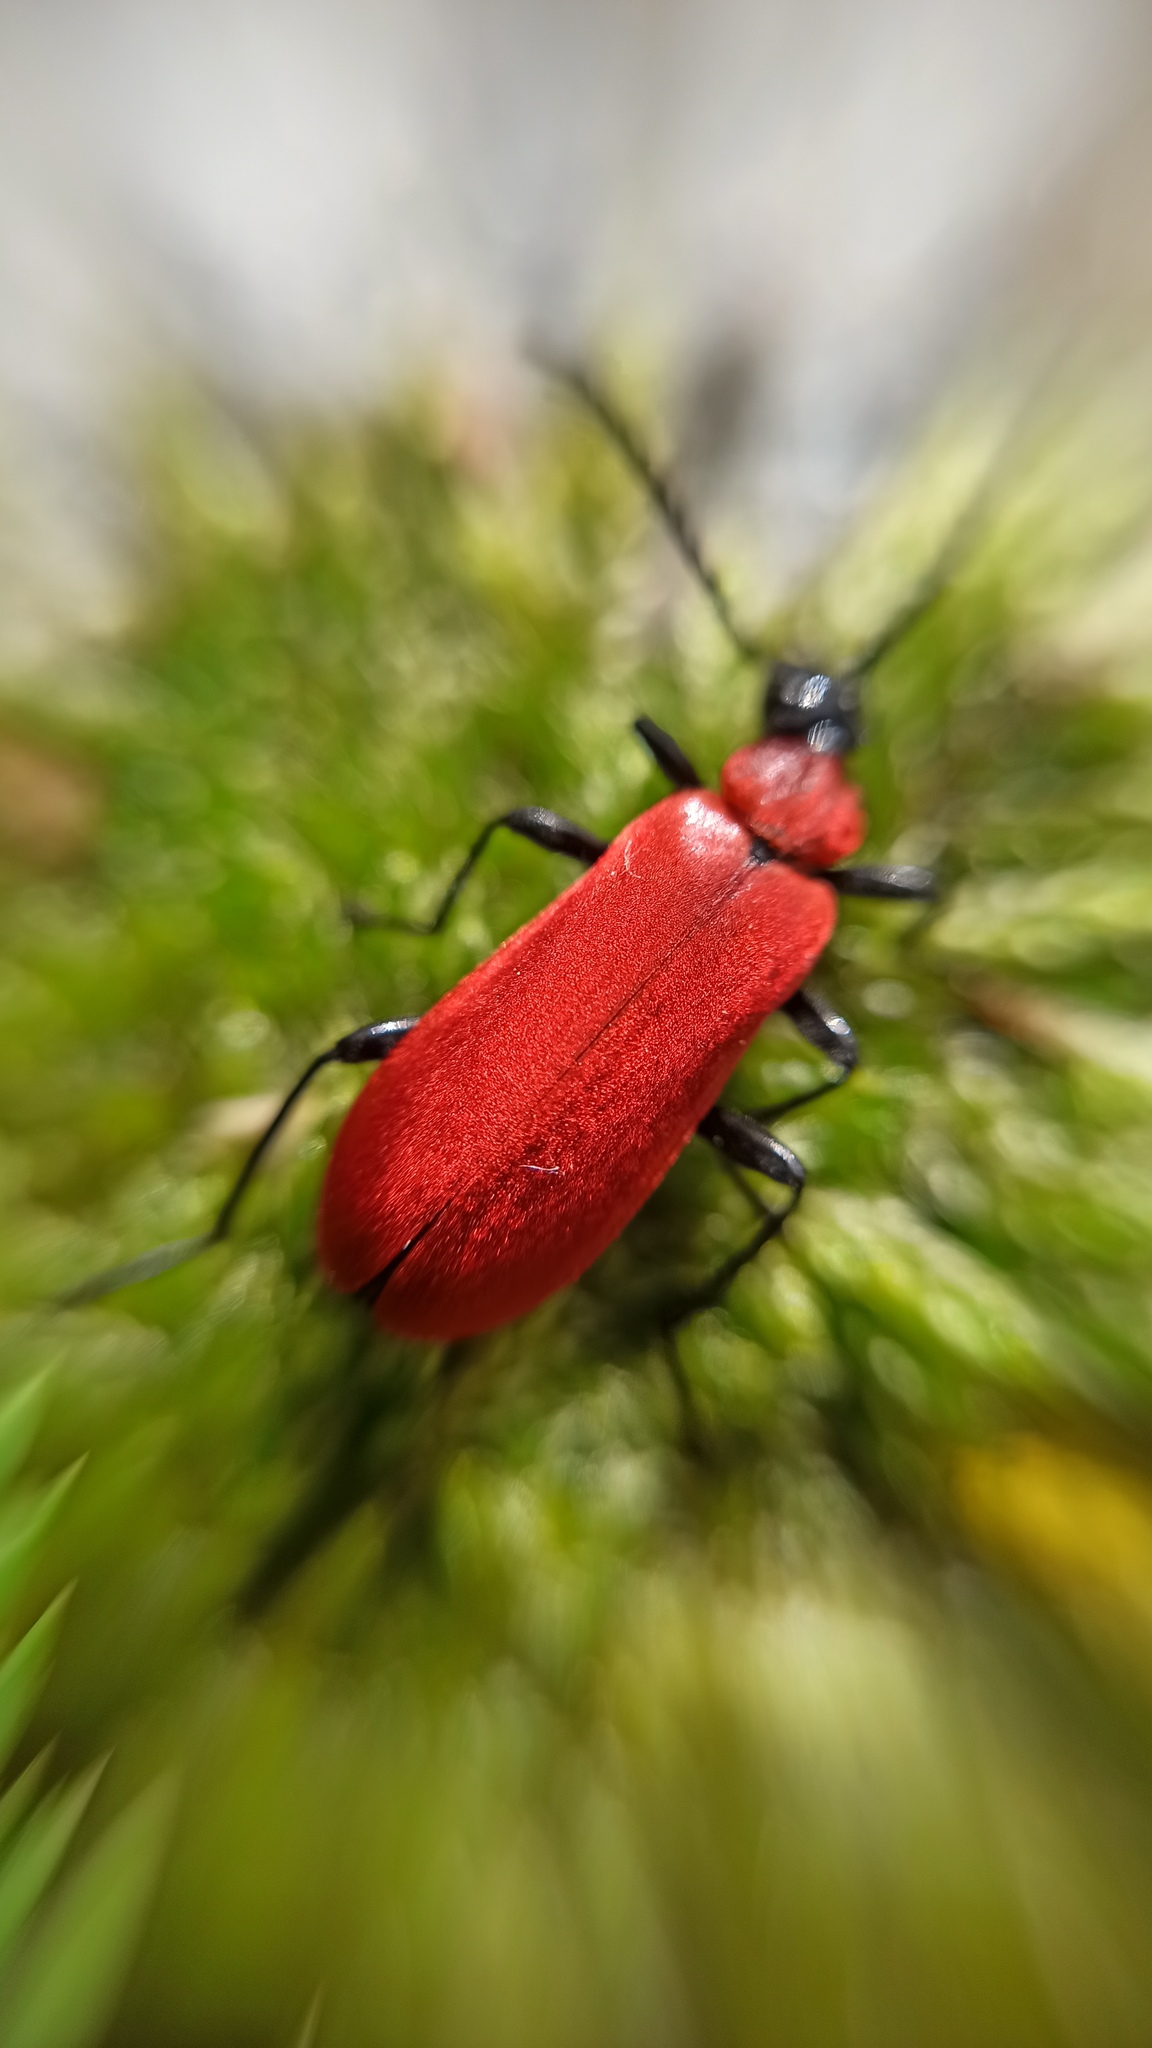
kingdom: Animalia
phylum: Arthropoda
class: Insecta
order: Coleoptera
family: Pyrochroidae
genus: Pyrochroa
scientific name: Pyrochroa coccinea
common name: Black-headed cardinal beetle
